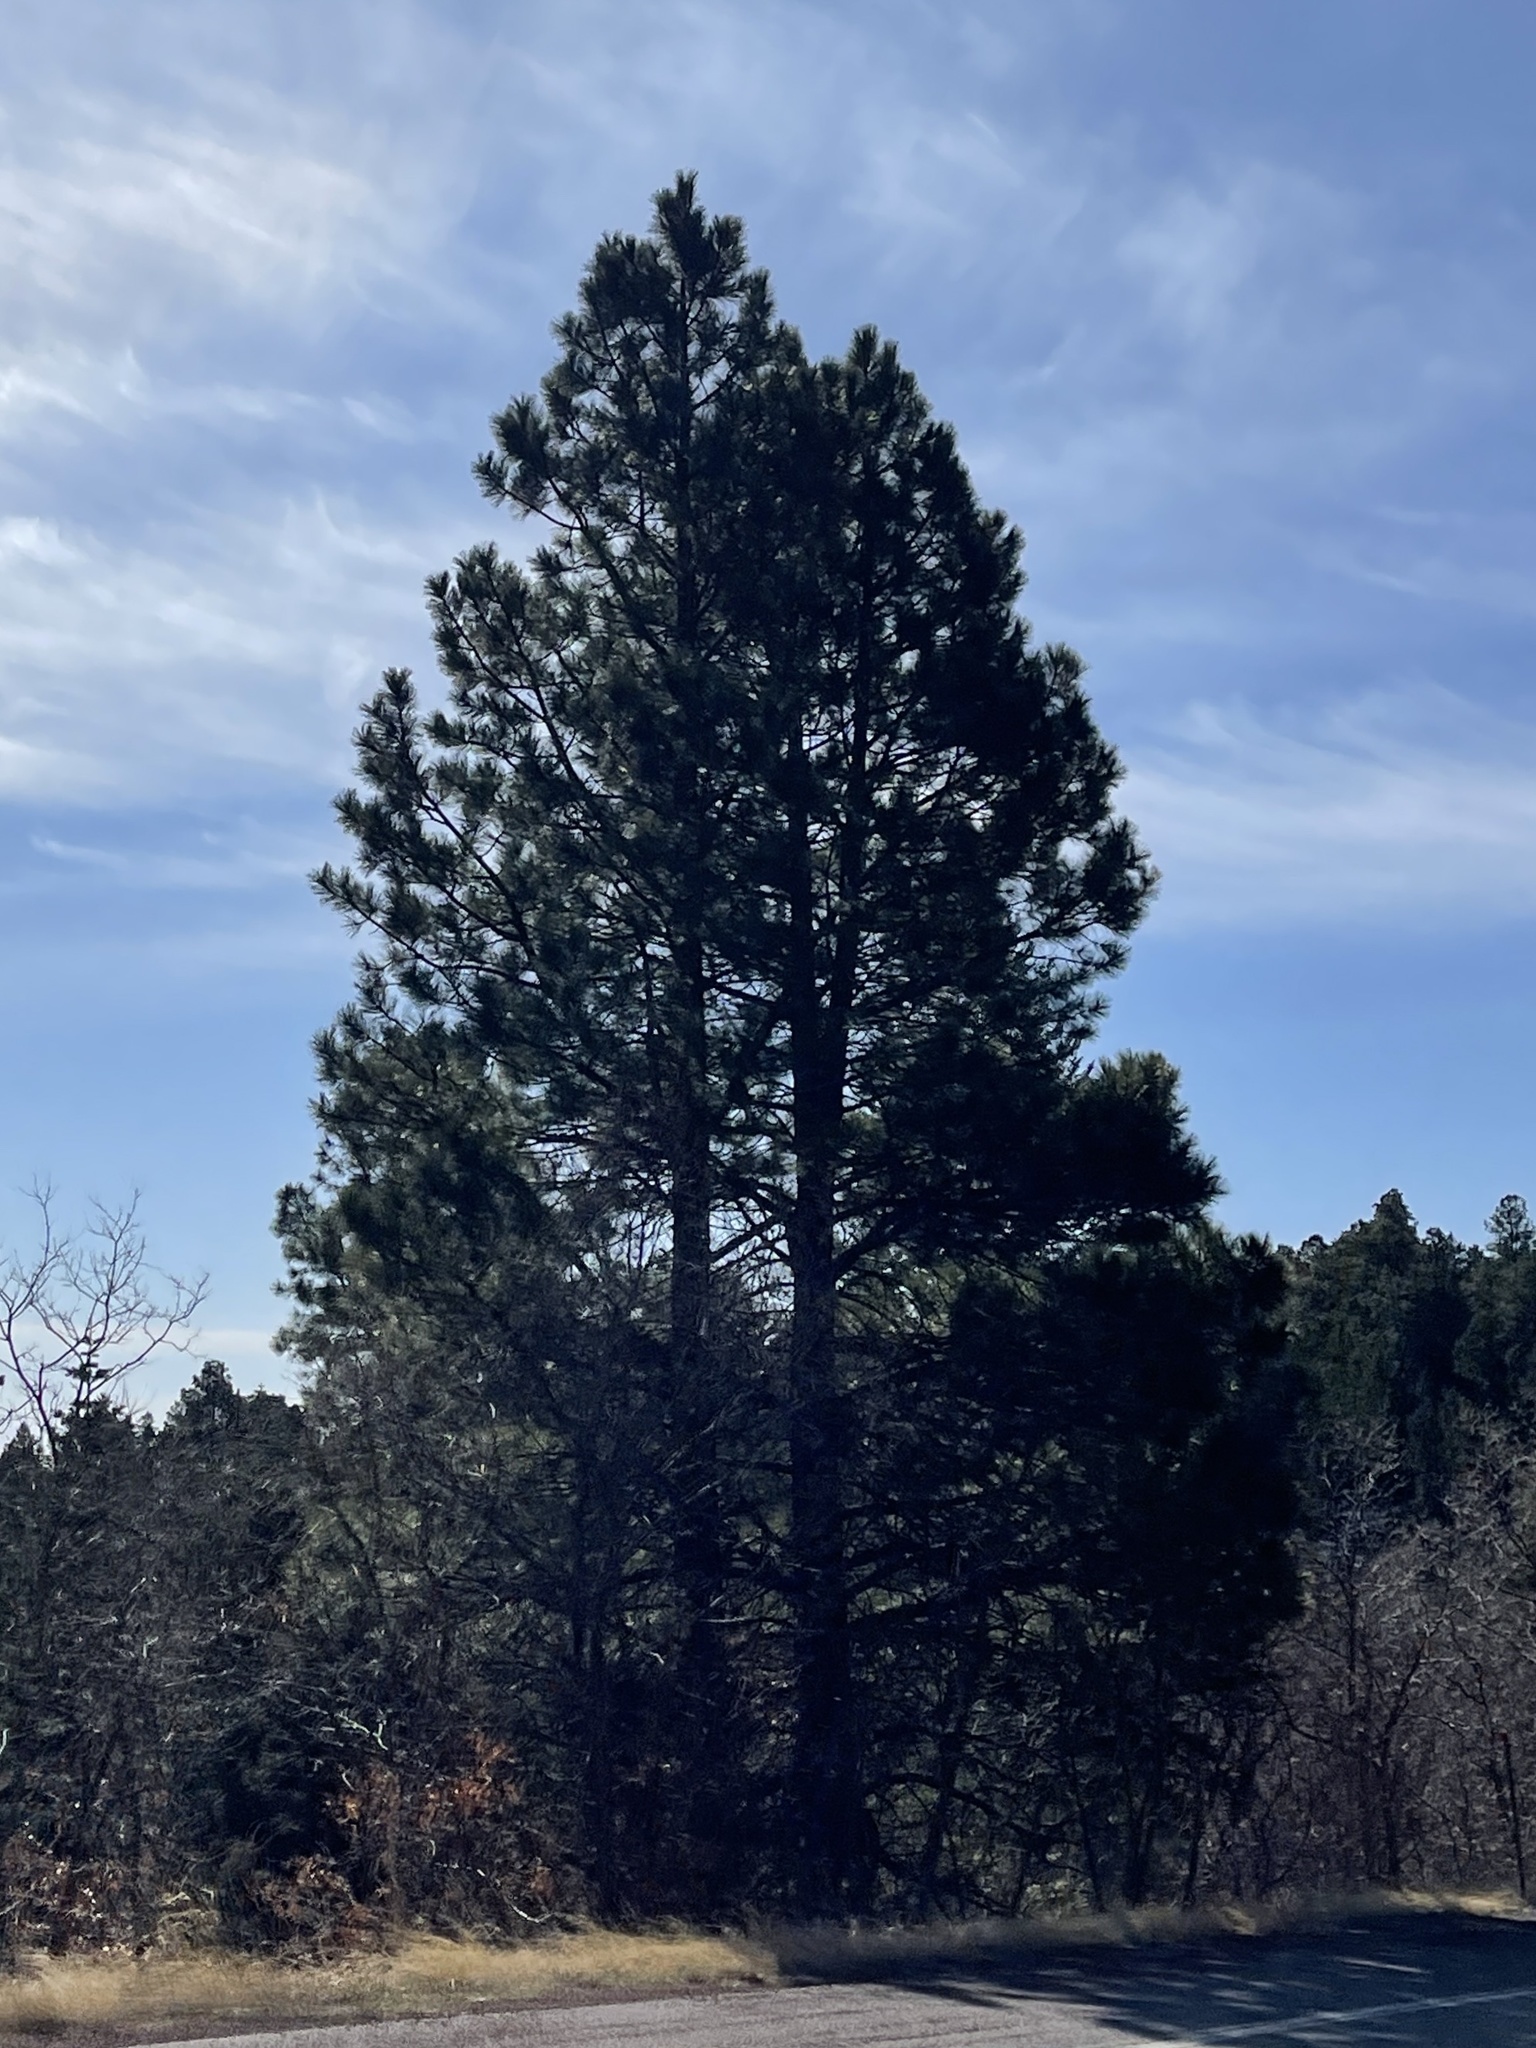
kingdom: Plantae
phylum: Tracheophyta
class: Pinopsida
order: Pinales
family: Pinaceae
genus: Pinus
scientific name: Pinus ponderosa
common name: Western yellow-pine
